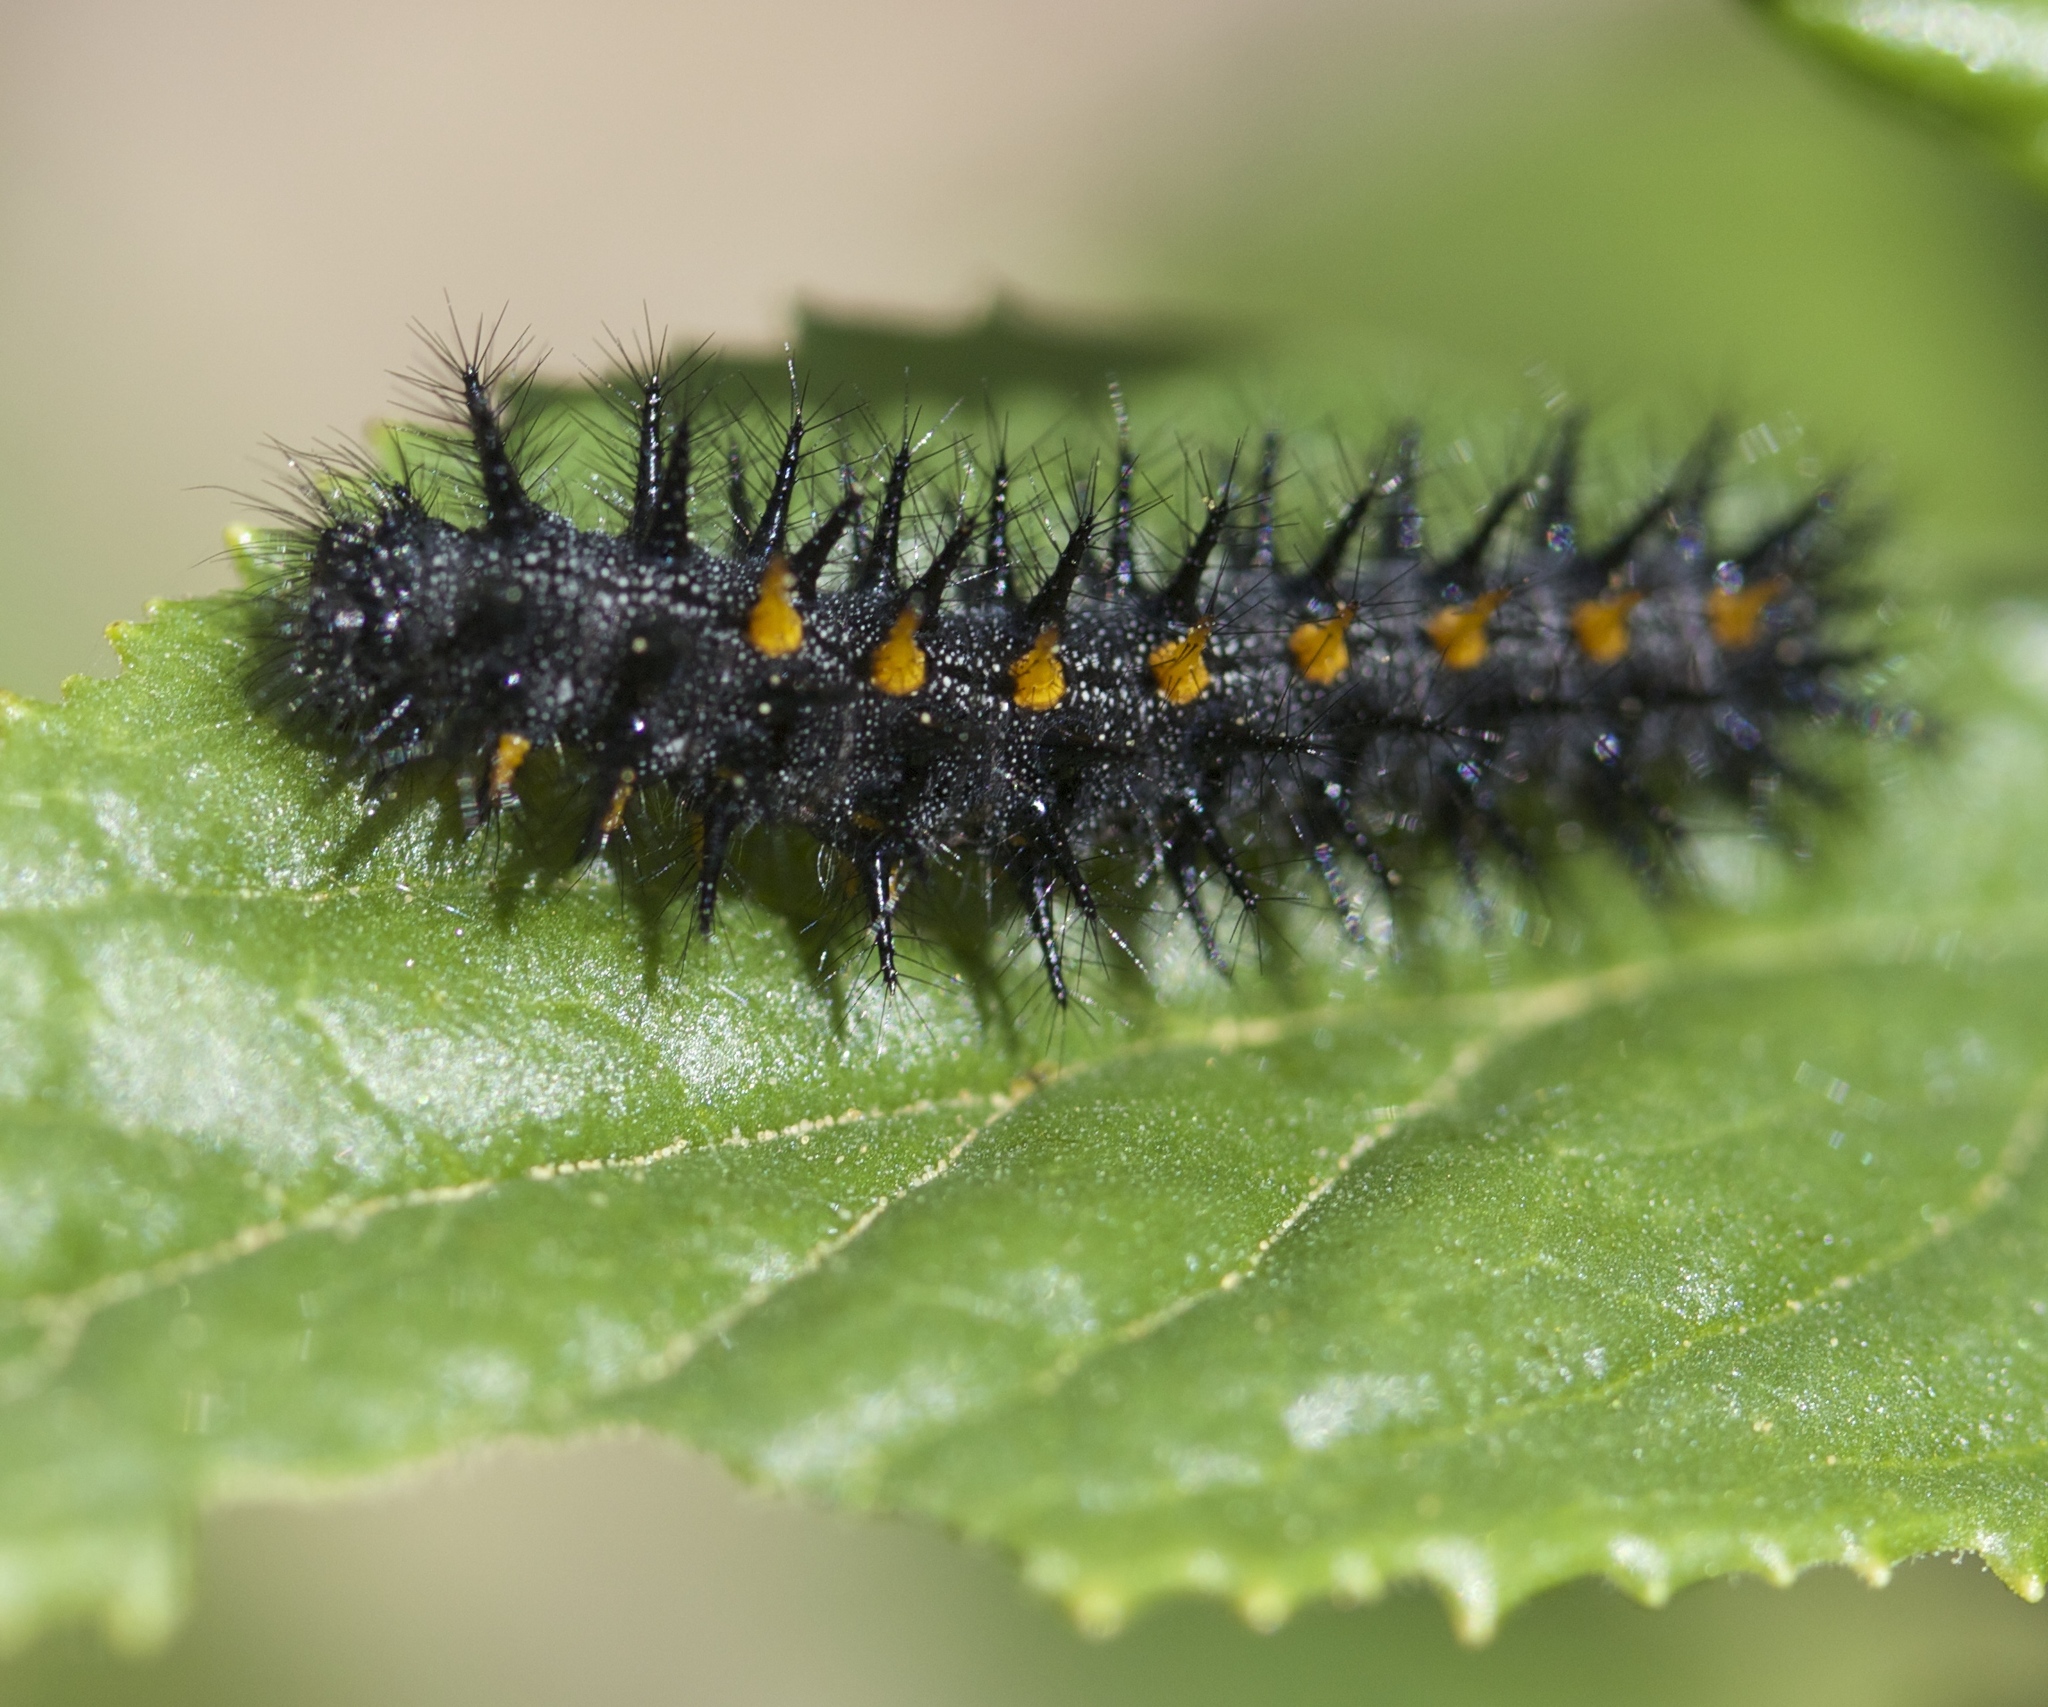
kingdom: Animalia
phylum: Arthropoda
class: Insecta
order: Lepidoptera
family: Nymphalidae
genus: Occidryas
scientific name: Occidryas chalcedona
